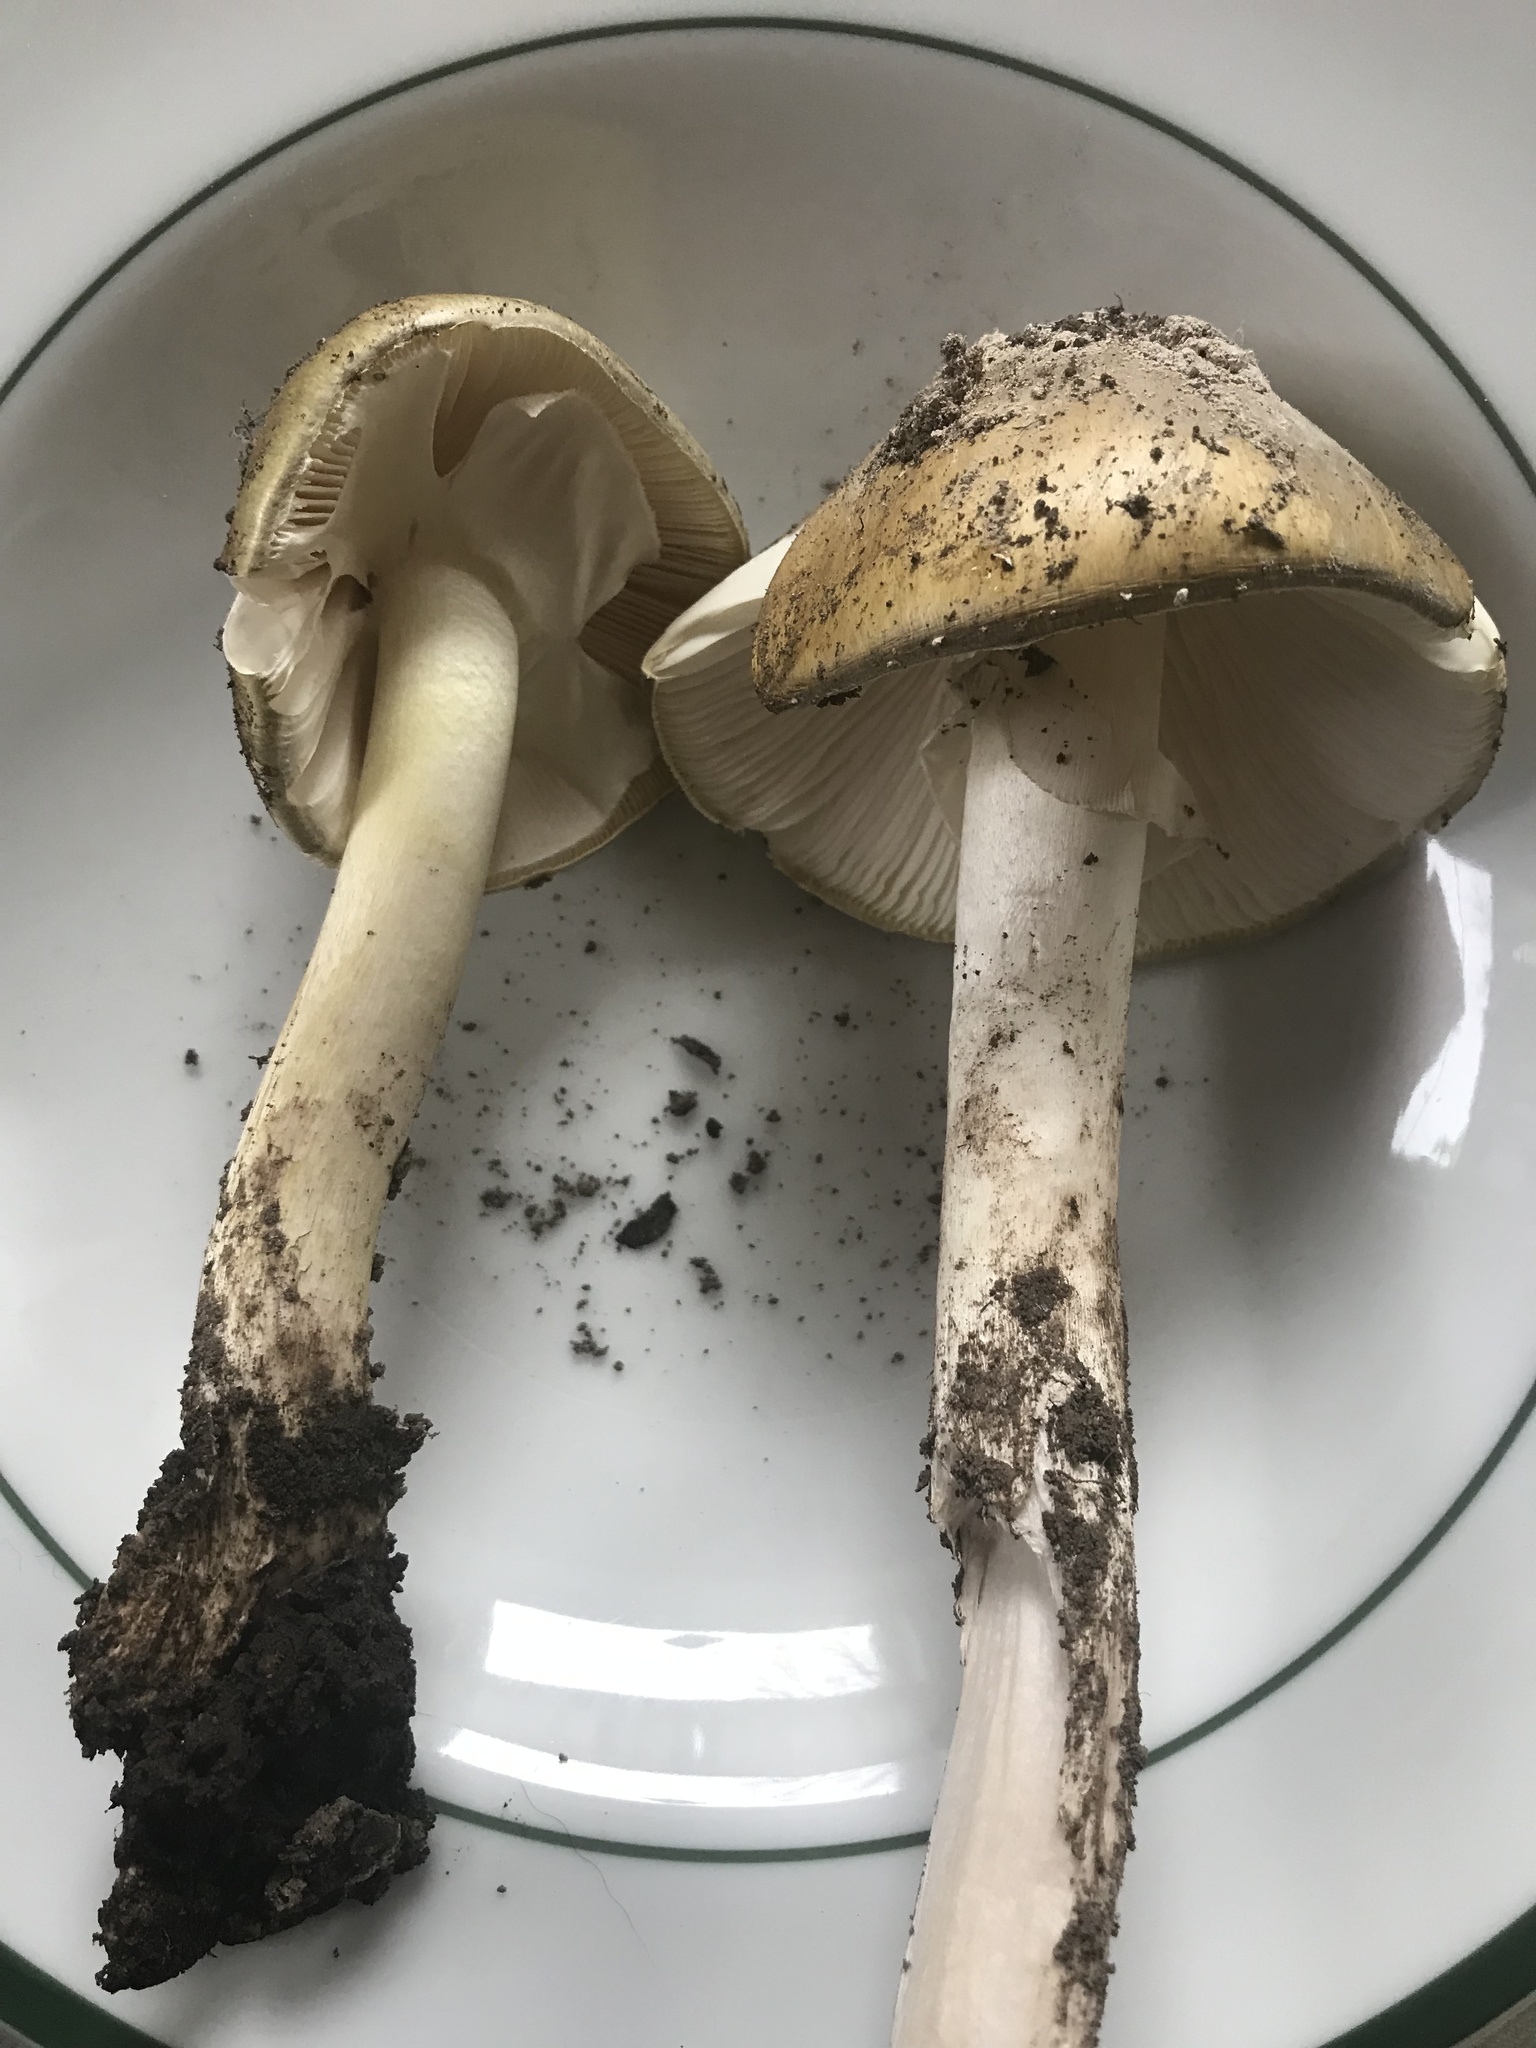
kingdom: Fungi
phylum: Basidiomycota
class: Agaricomycetes
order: Agaricales
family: Amanitaceae
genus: Amanita
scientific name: Amanita phalloides
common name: Death cap
